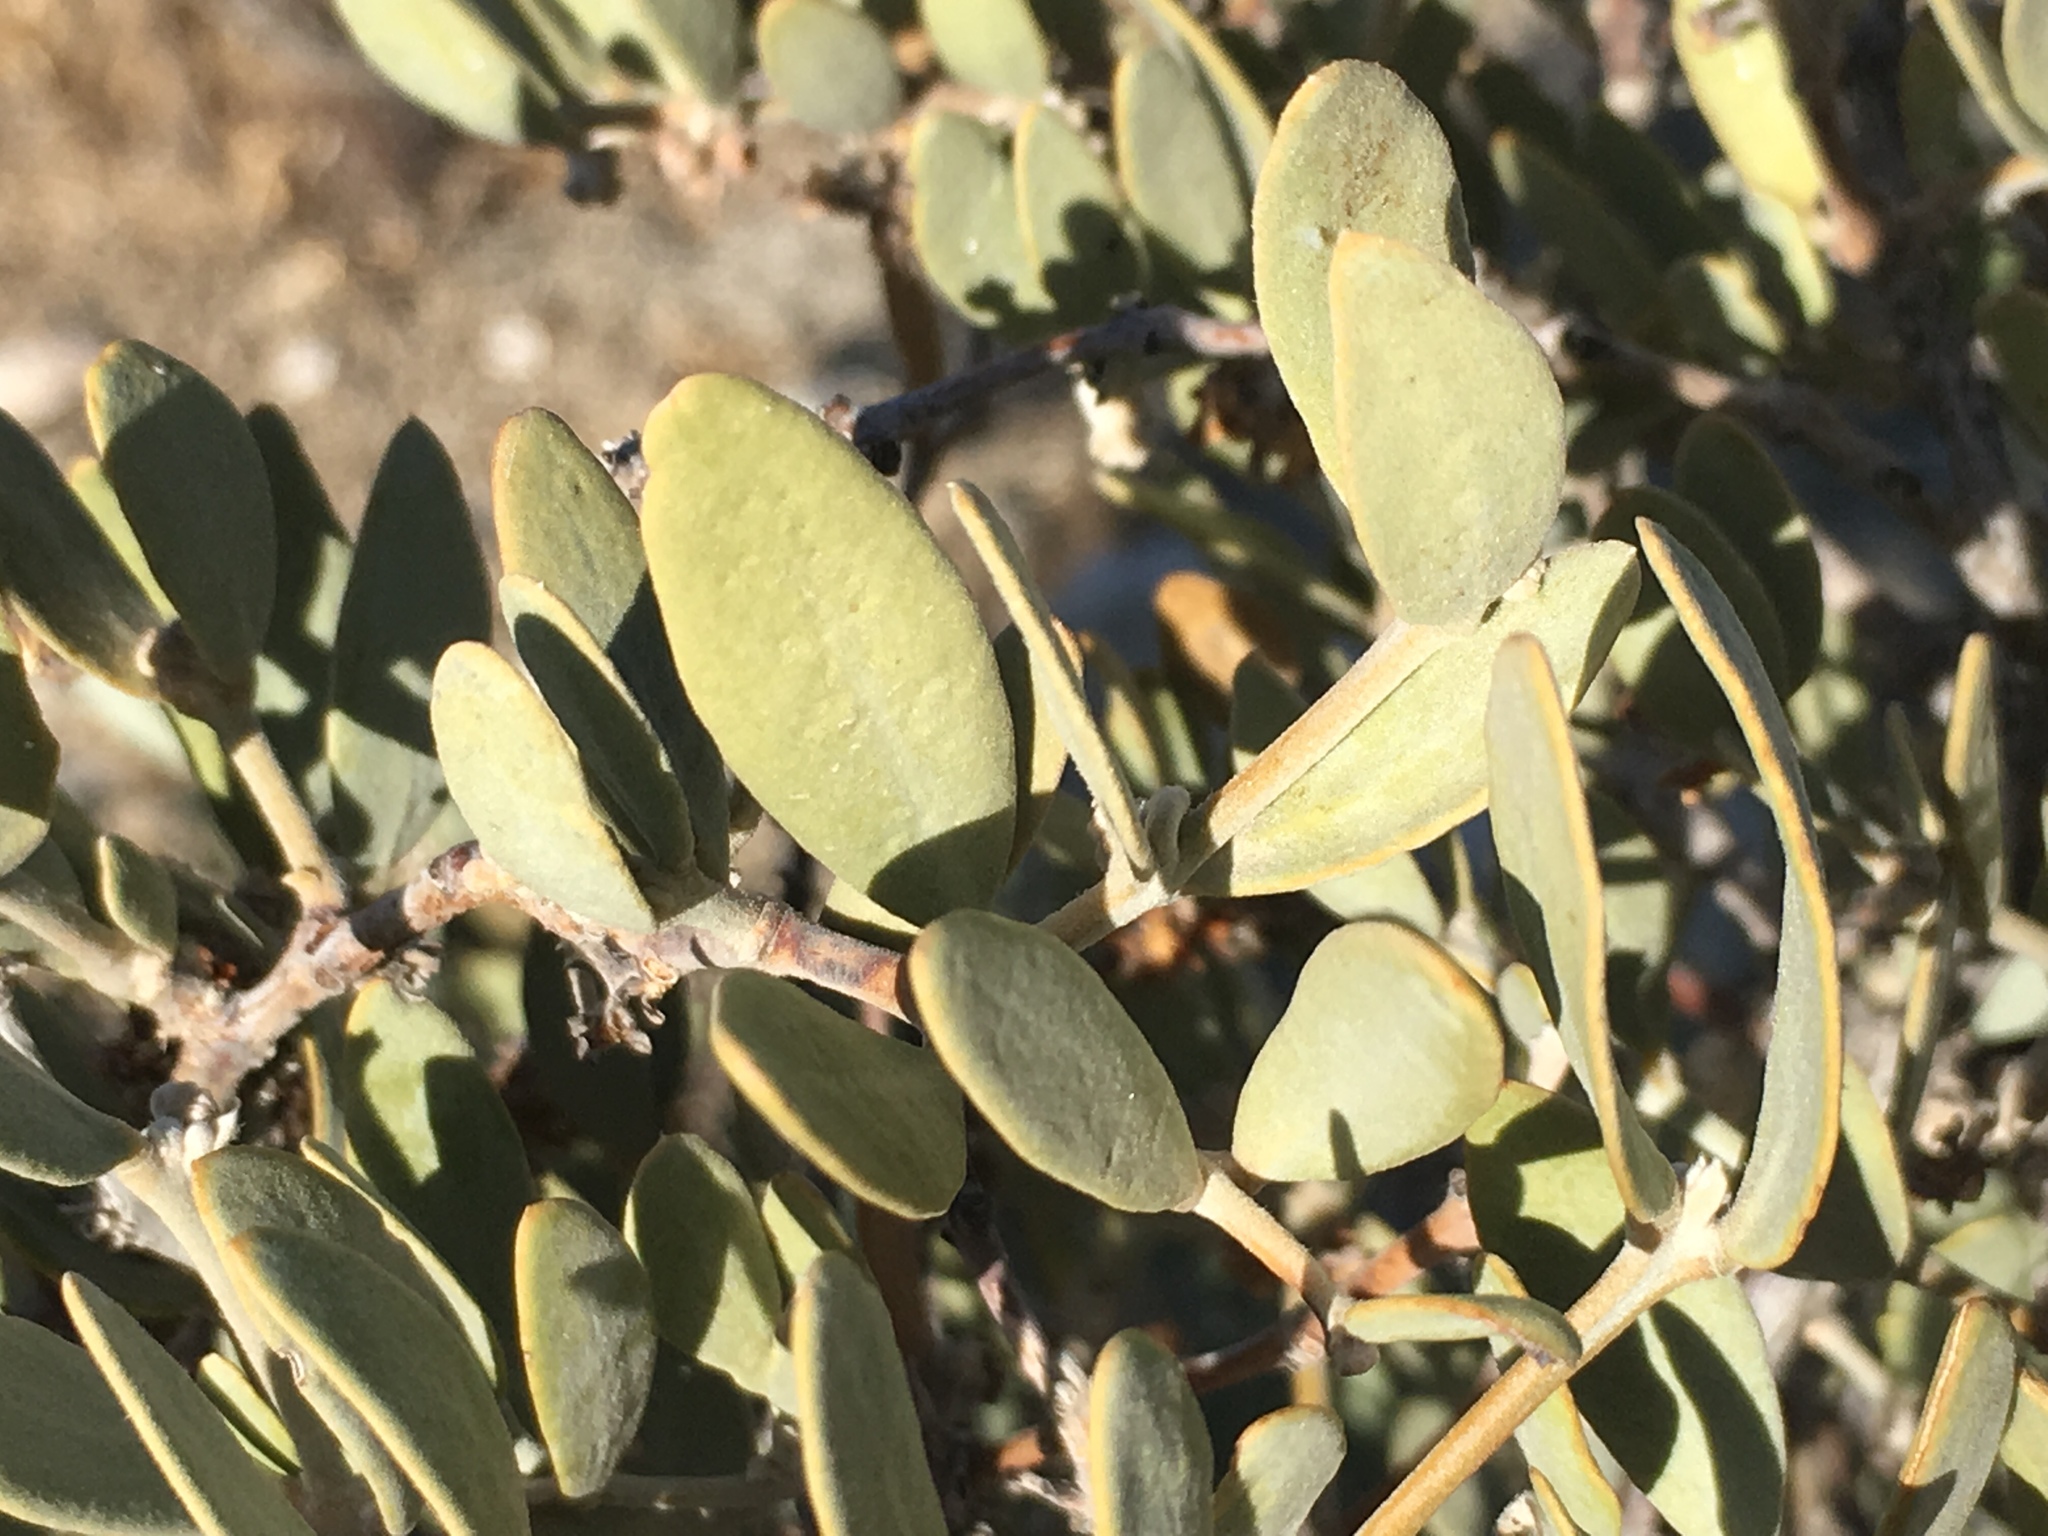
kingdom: Plantae
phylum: Tracheophyta
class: Magnoliopsida
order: Caryophyllales
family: Simmondsiaceae
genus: Simmondsia
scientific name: Simmondsia chinensis
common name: Jojoba
